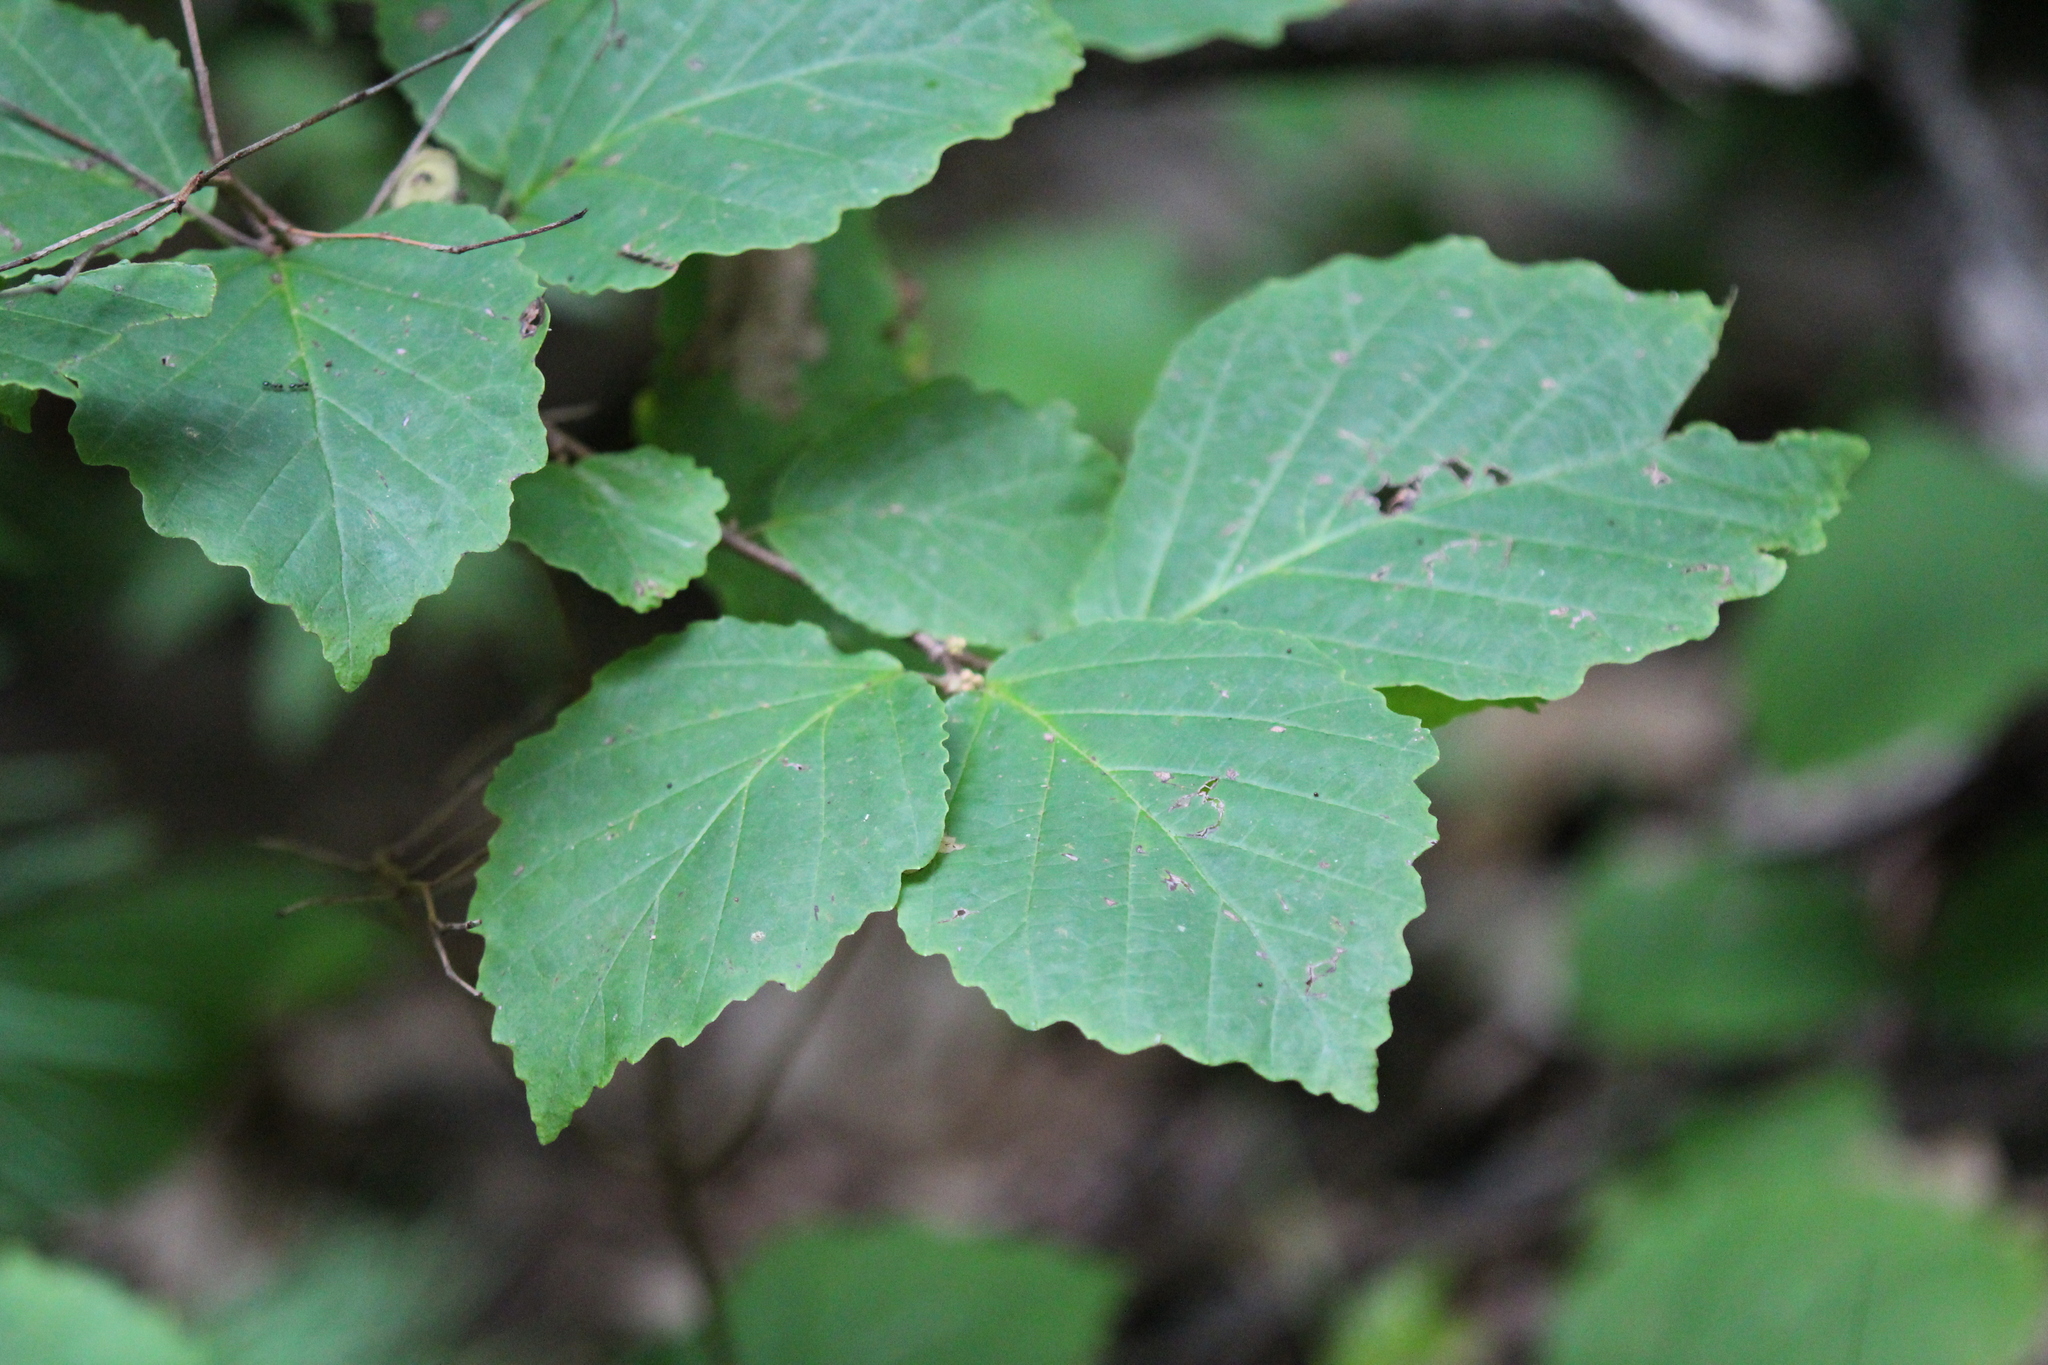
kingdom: Plantae
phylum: Tracheophyta
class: Magnoliopsida
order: Saxifragales
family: Hamamelidaceae
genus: Hamamelis
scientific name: Hamamelis virginiana
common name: Witch-hazel
